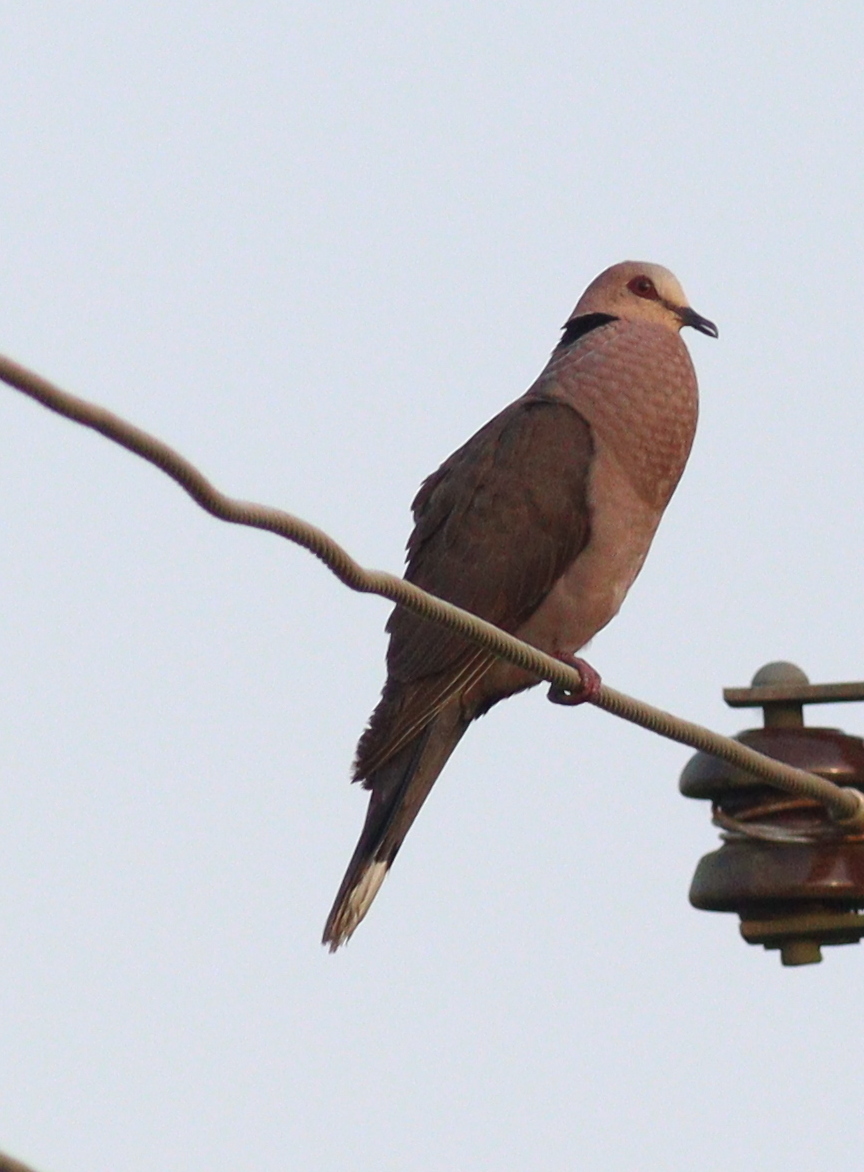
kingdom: Animalia
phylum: Chordata
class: Aves
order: Columbiformes
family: Columbidae
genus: Streptopelia
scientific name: Streptopelia semitorquata
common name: Red-eyed dove
